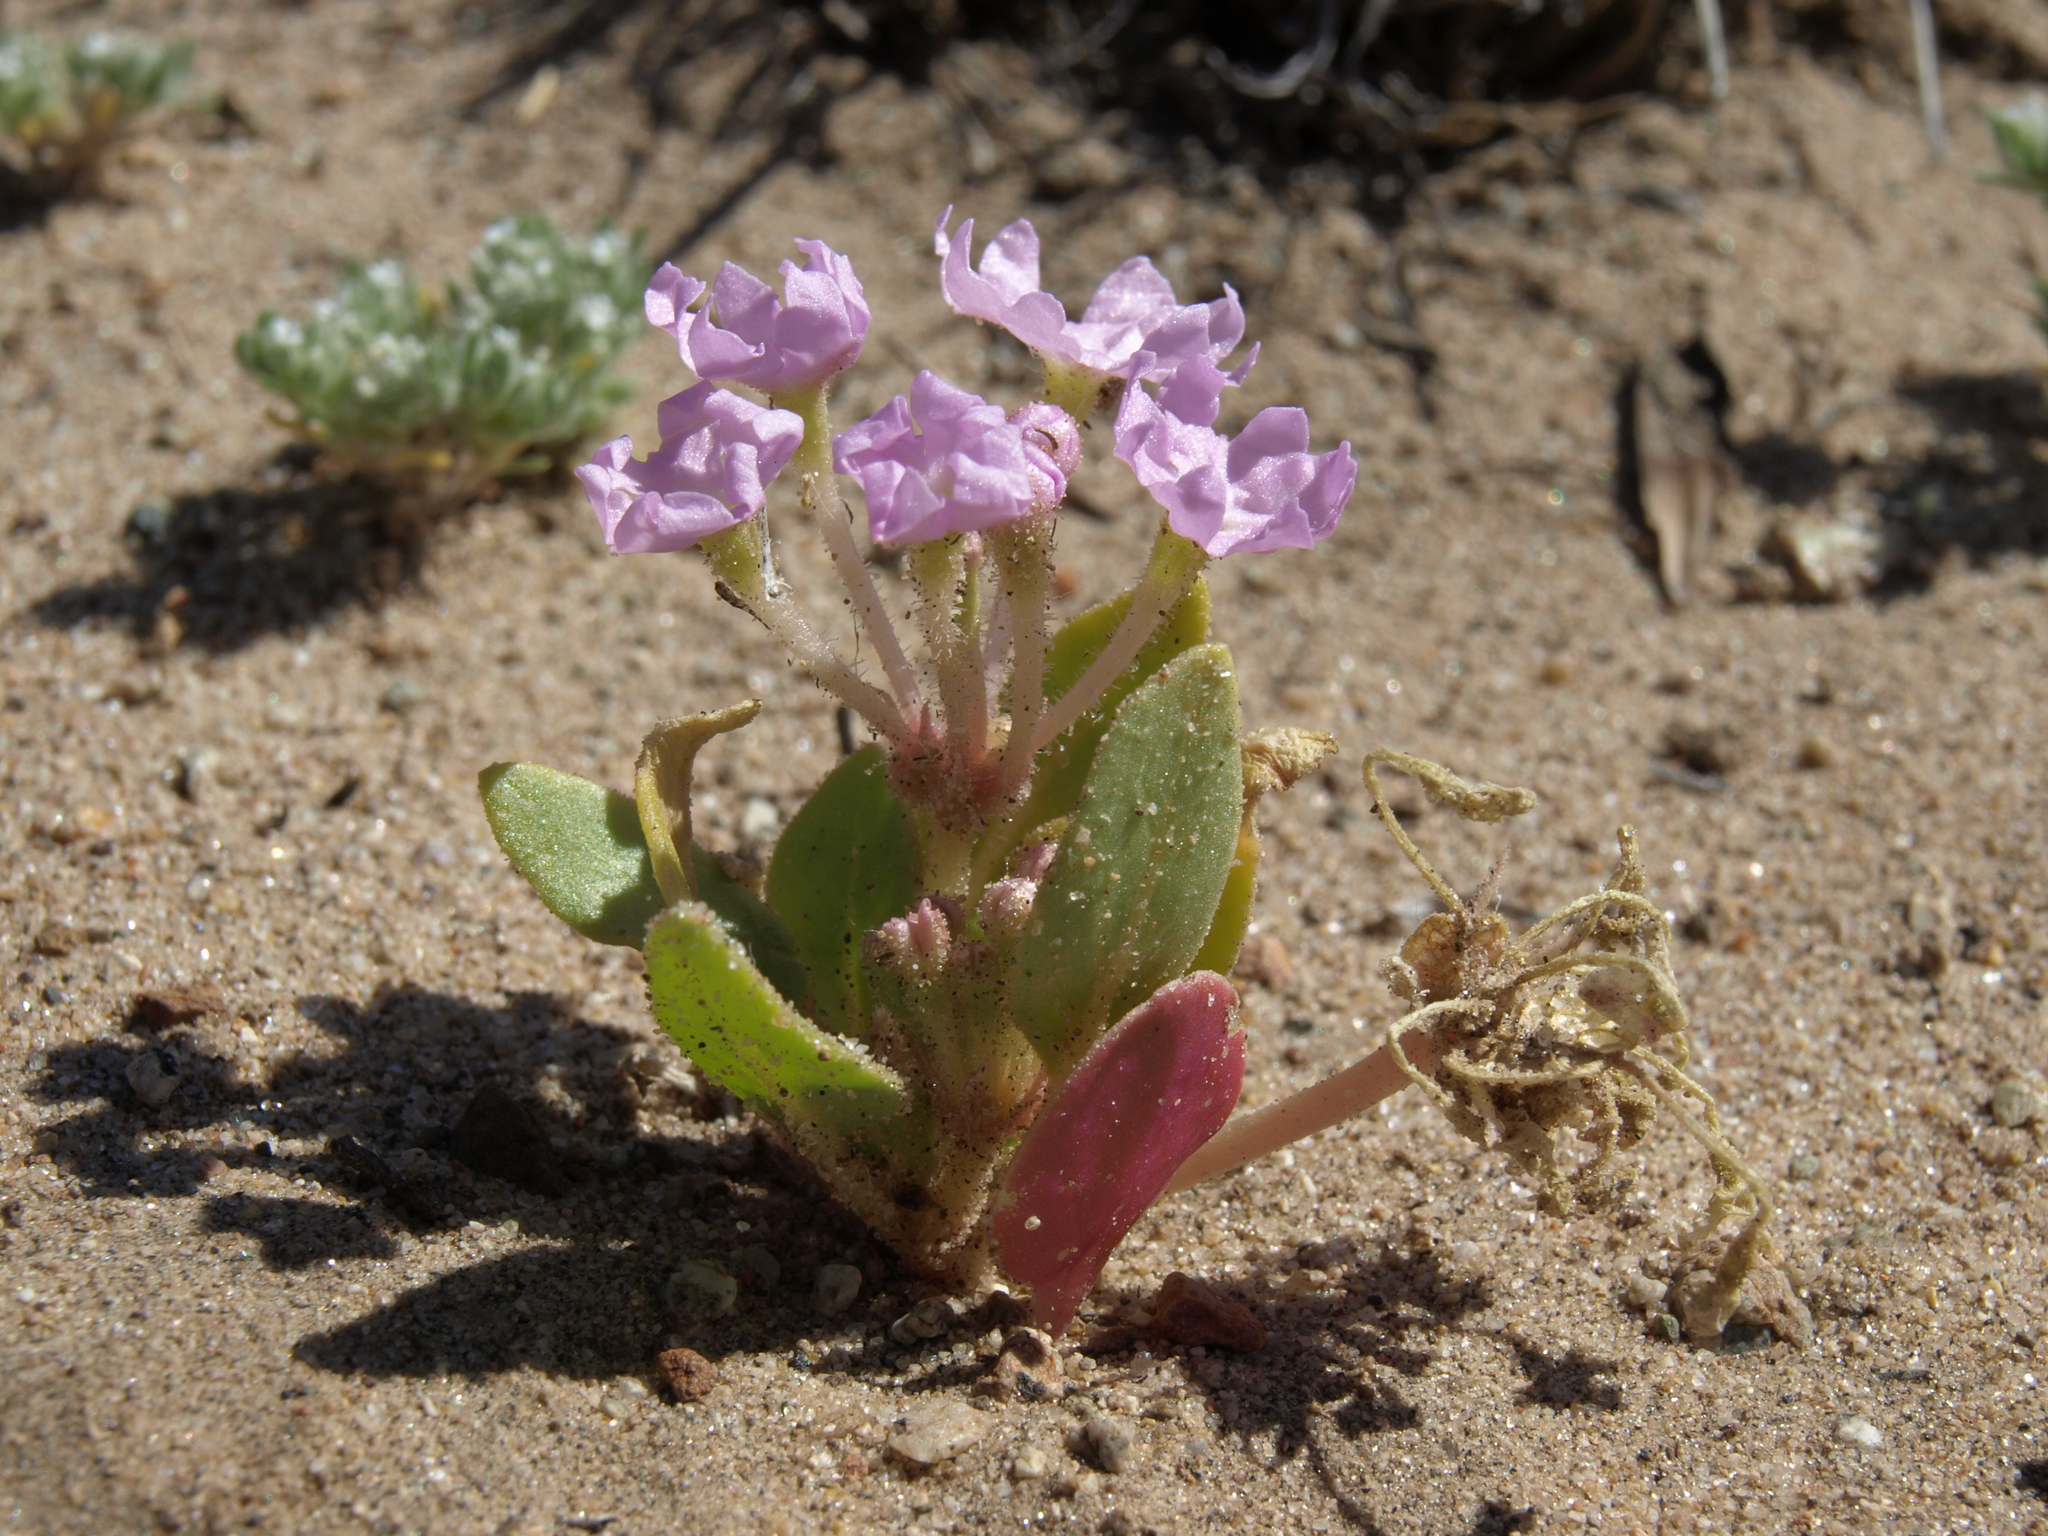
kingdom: Plantae
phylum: Tracheophyta
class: Magnoliopsida
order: Caryophyllales
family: Nyctaginaceae
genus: Tripterocalyx
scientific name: Tripterocalyx crux-maltae
